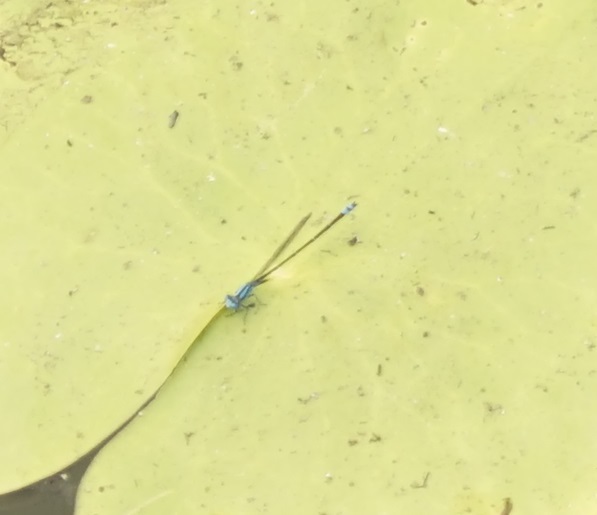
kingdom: Animalia
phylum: Arthropoda
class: Insecta
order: Odonata
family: Coenagrionidae
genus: Pseudagrion
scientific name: Pseudagrion microcephalum
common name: Blue riverdamsel
